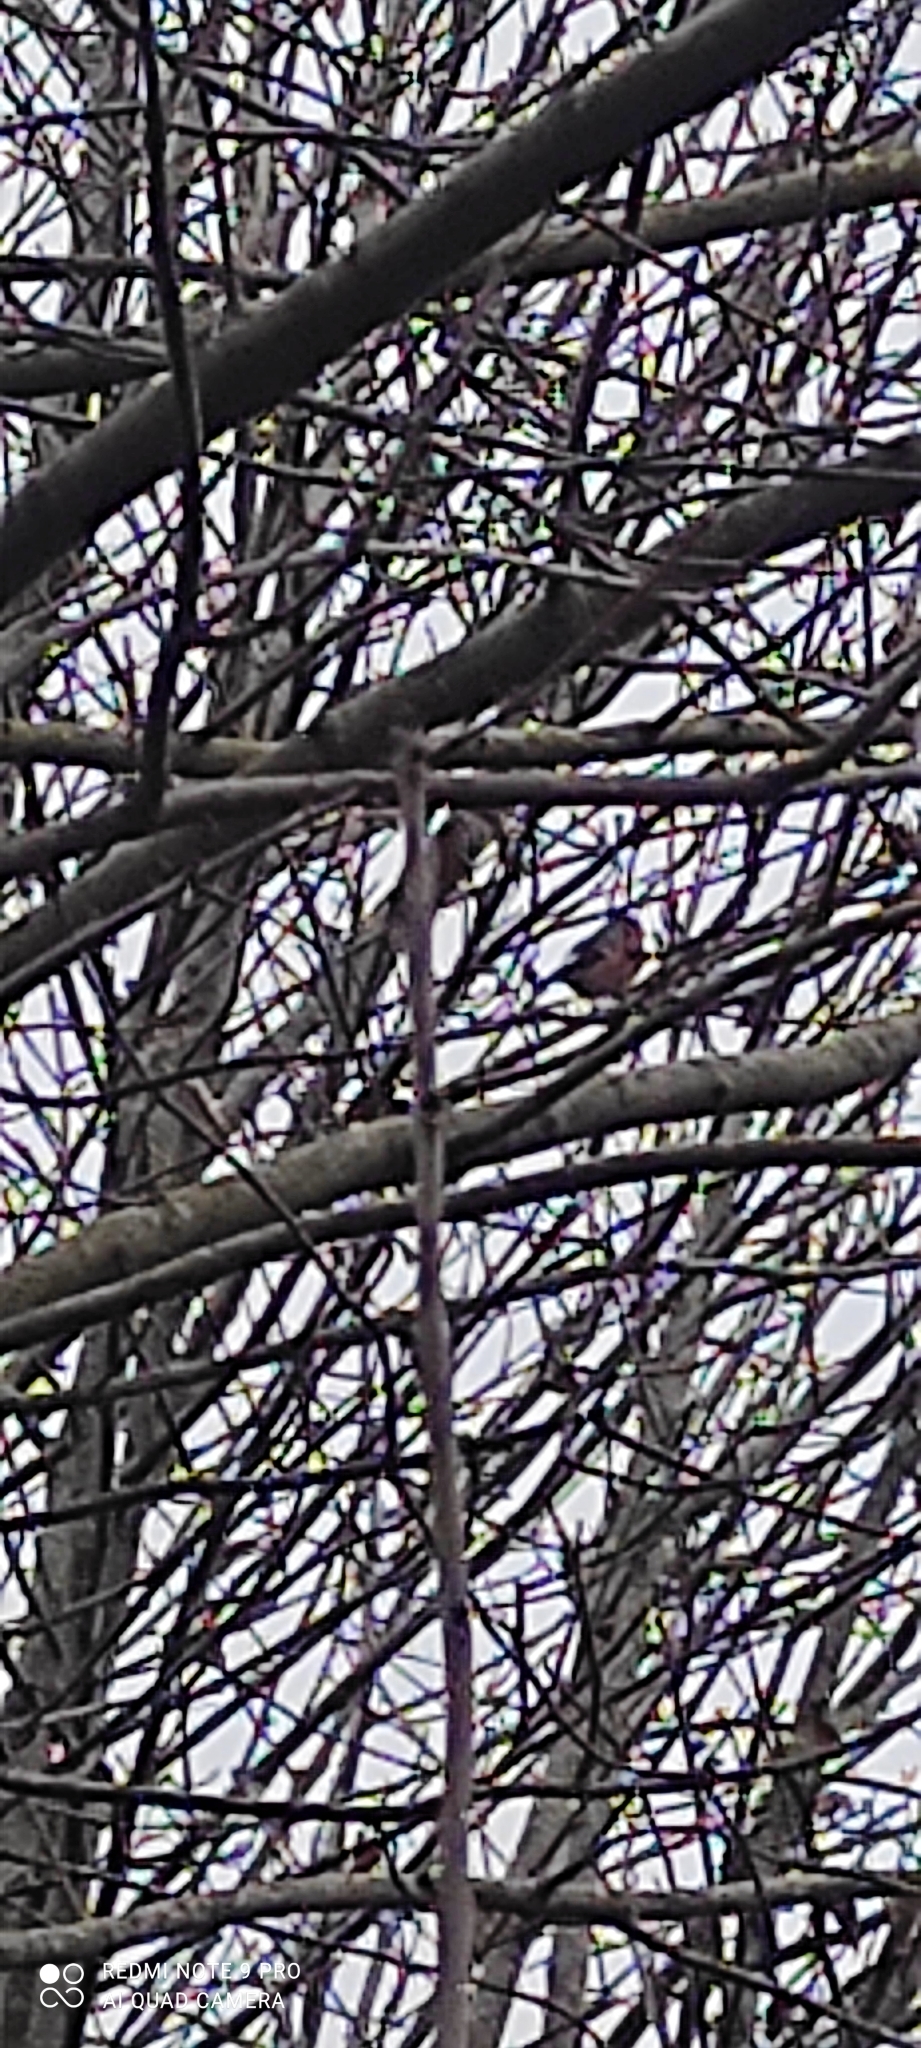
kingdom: Animalia
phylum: Chordata
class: Aves
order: Passeriformes
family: Fringillidae
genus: Pyrrhula
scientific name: Pyrrhula pyrrhula
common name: Eurasian bullfinch
